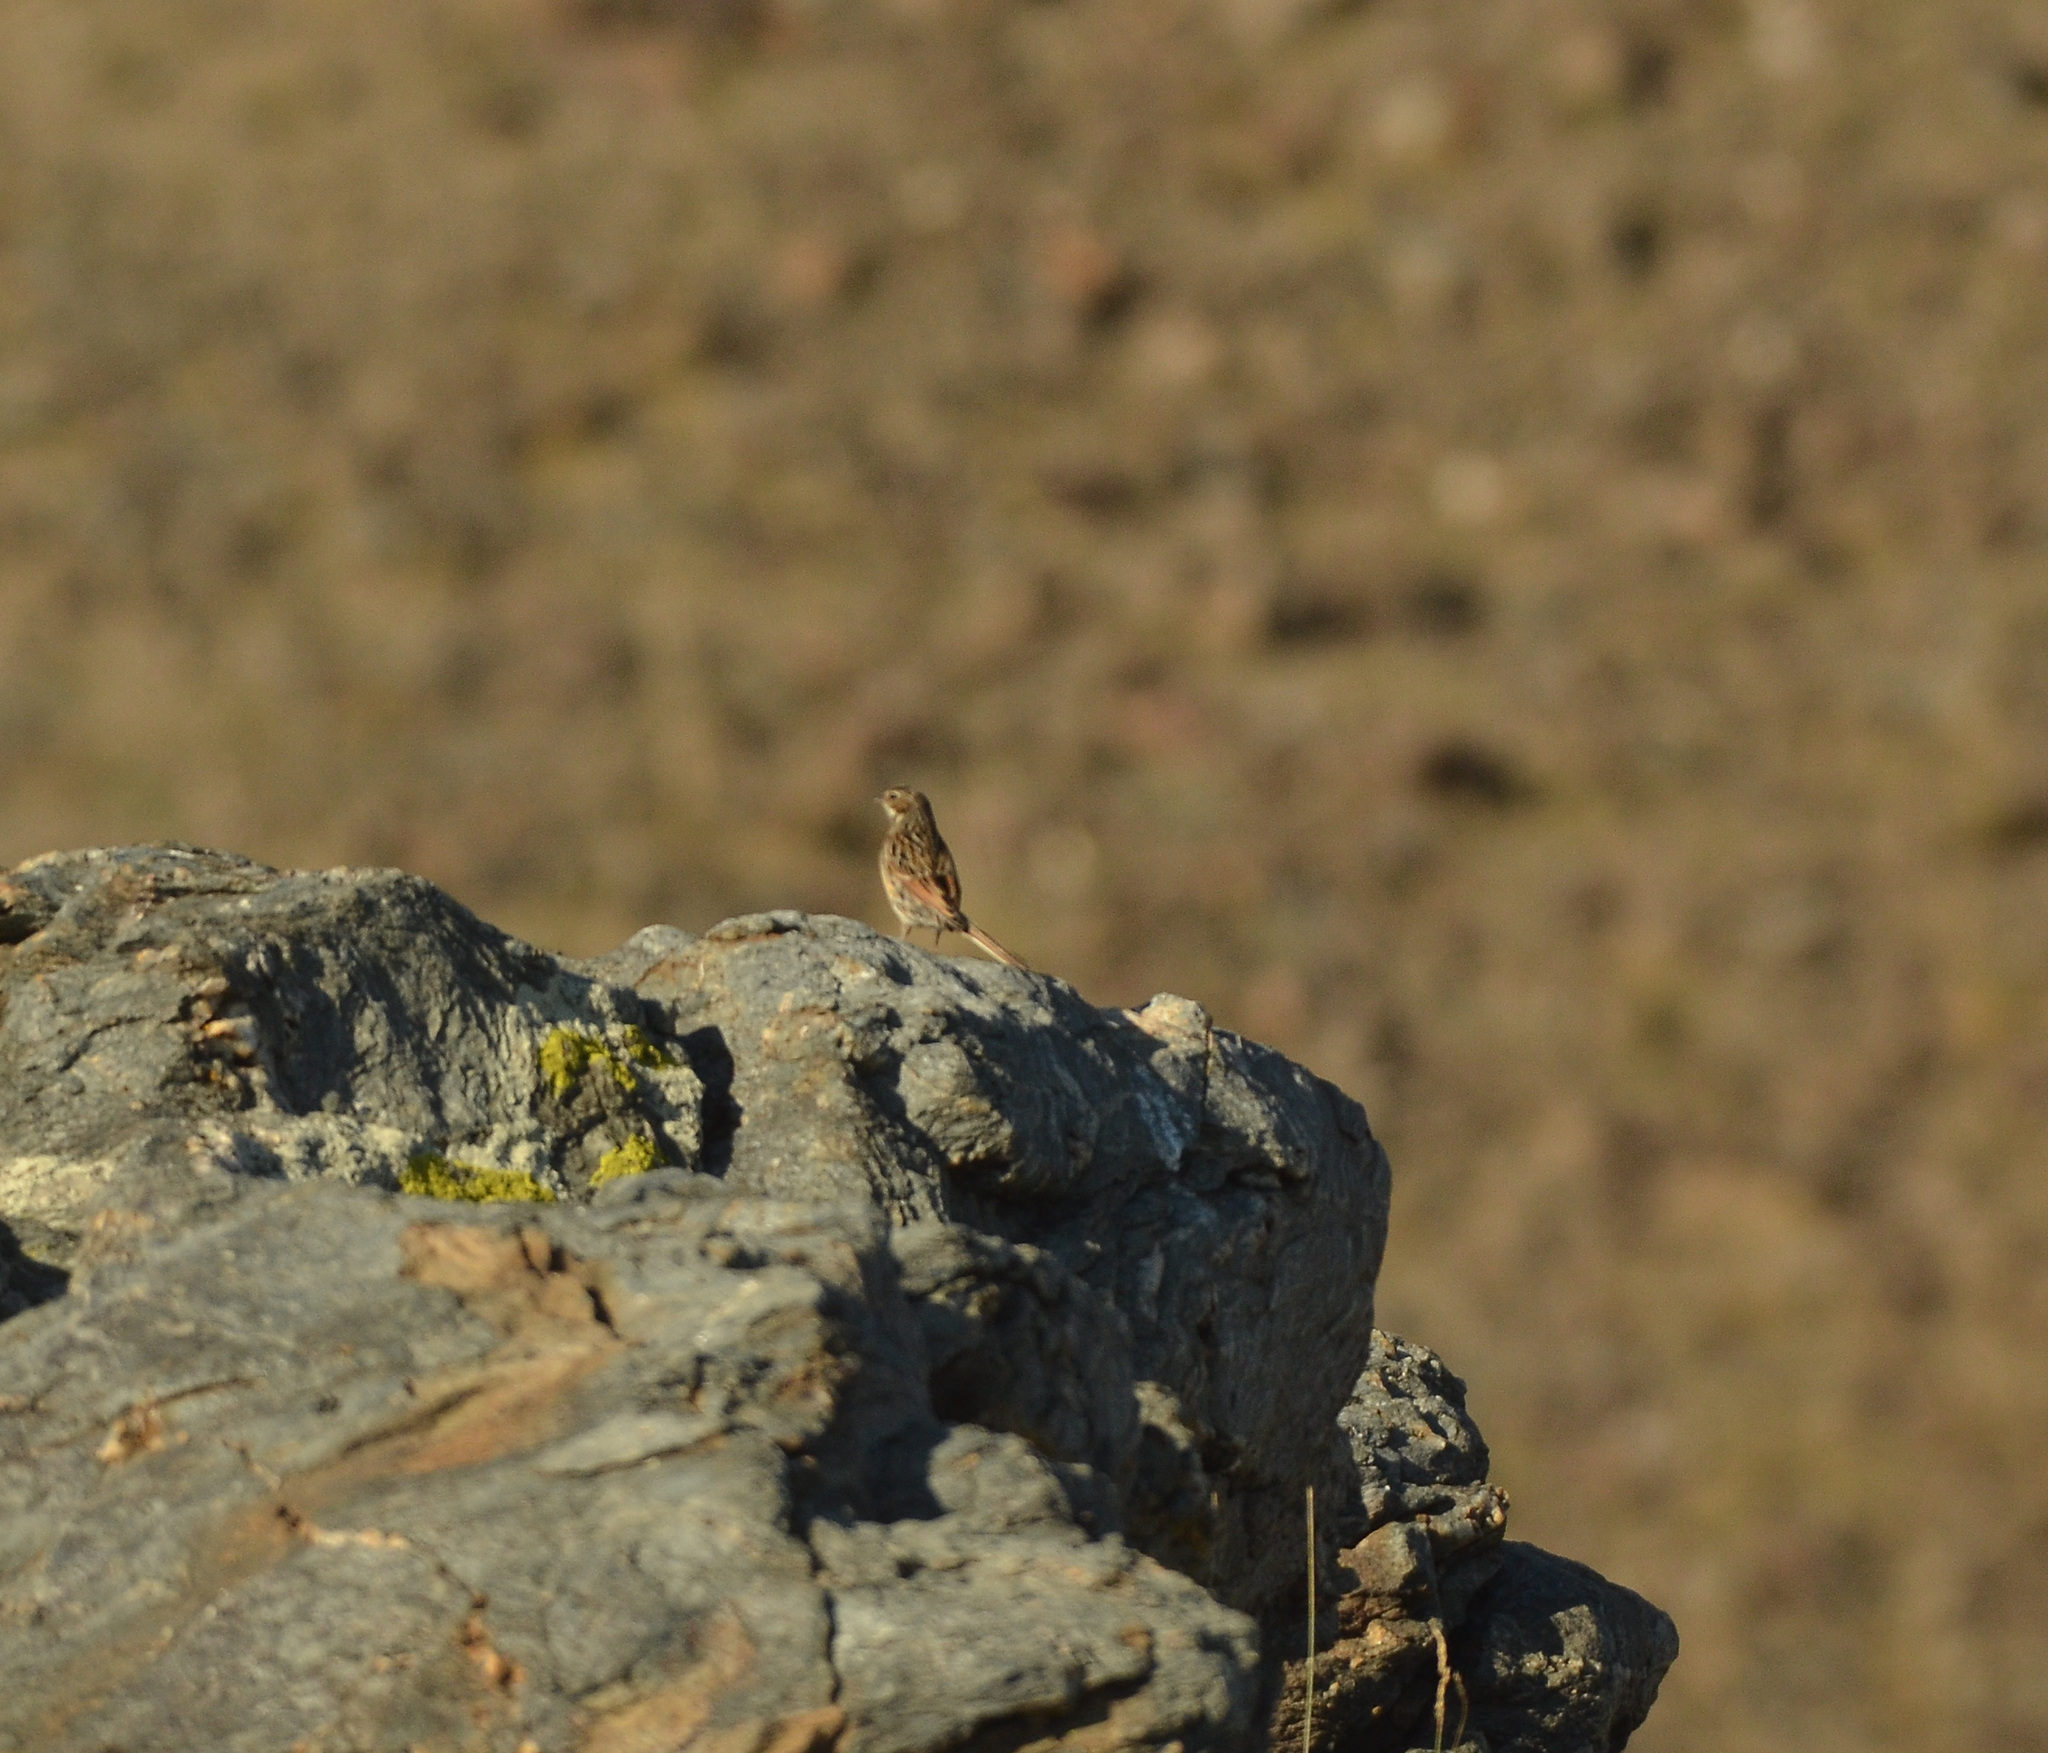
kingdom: Animalia
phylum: Chordata
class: Aves
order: Passeriformes
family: Emberizidae
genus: Emberiza
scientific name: Emberiza schoeniclus
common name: Reed bunting
